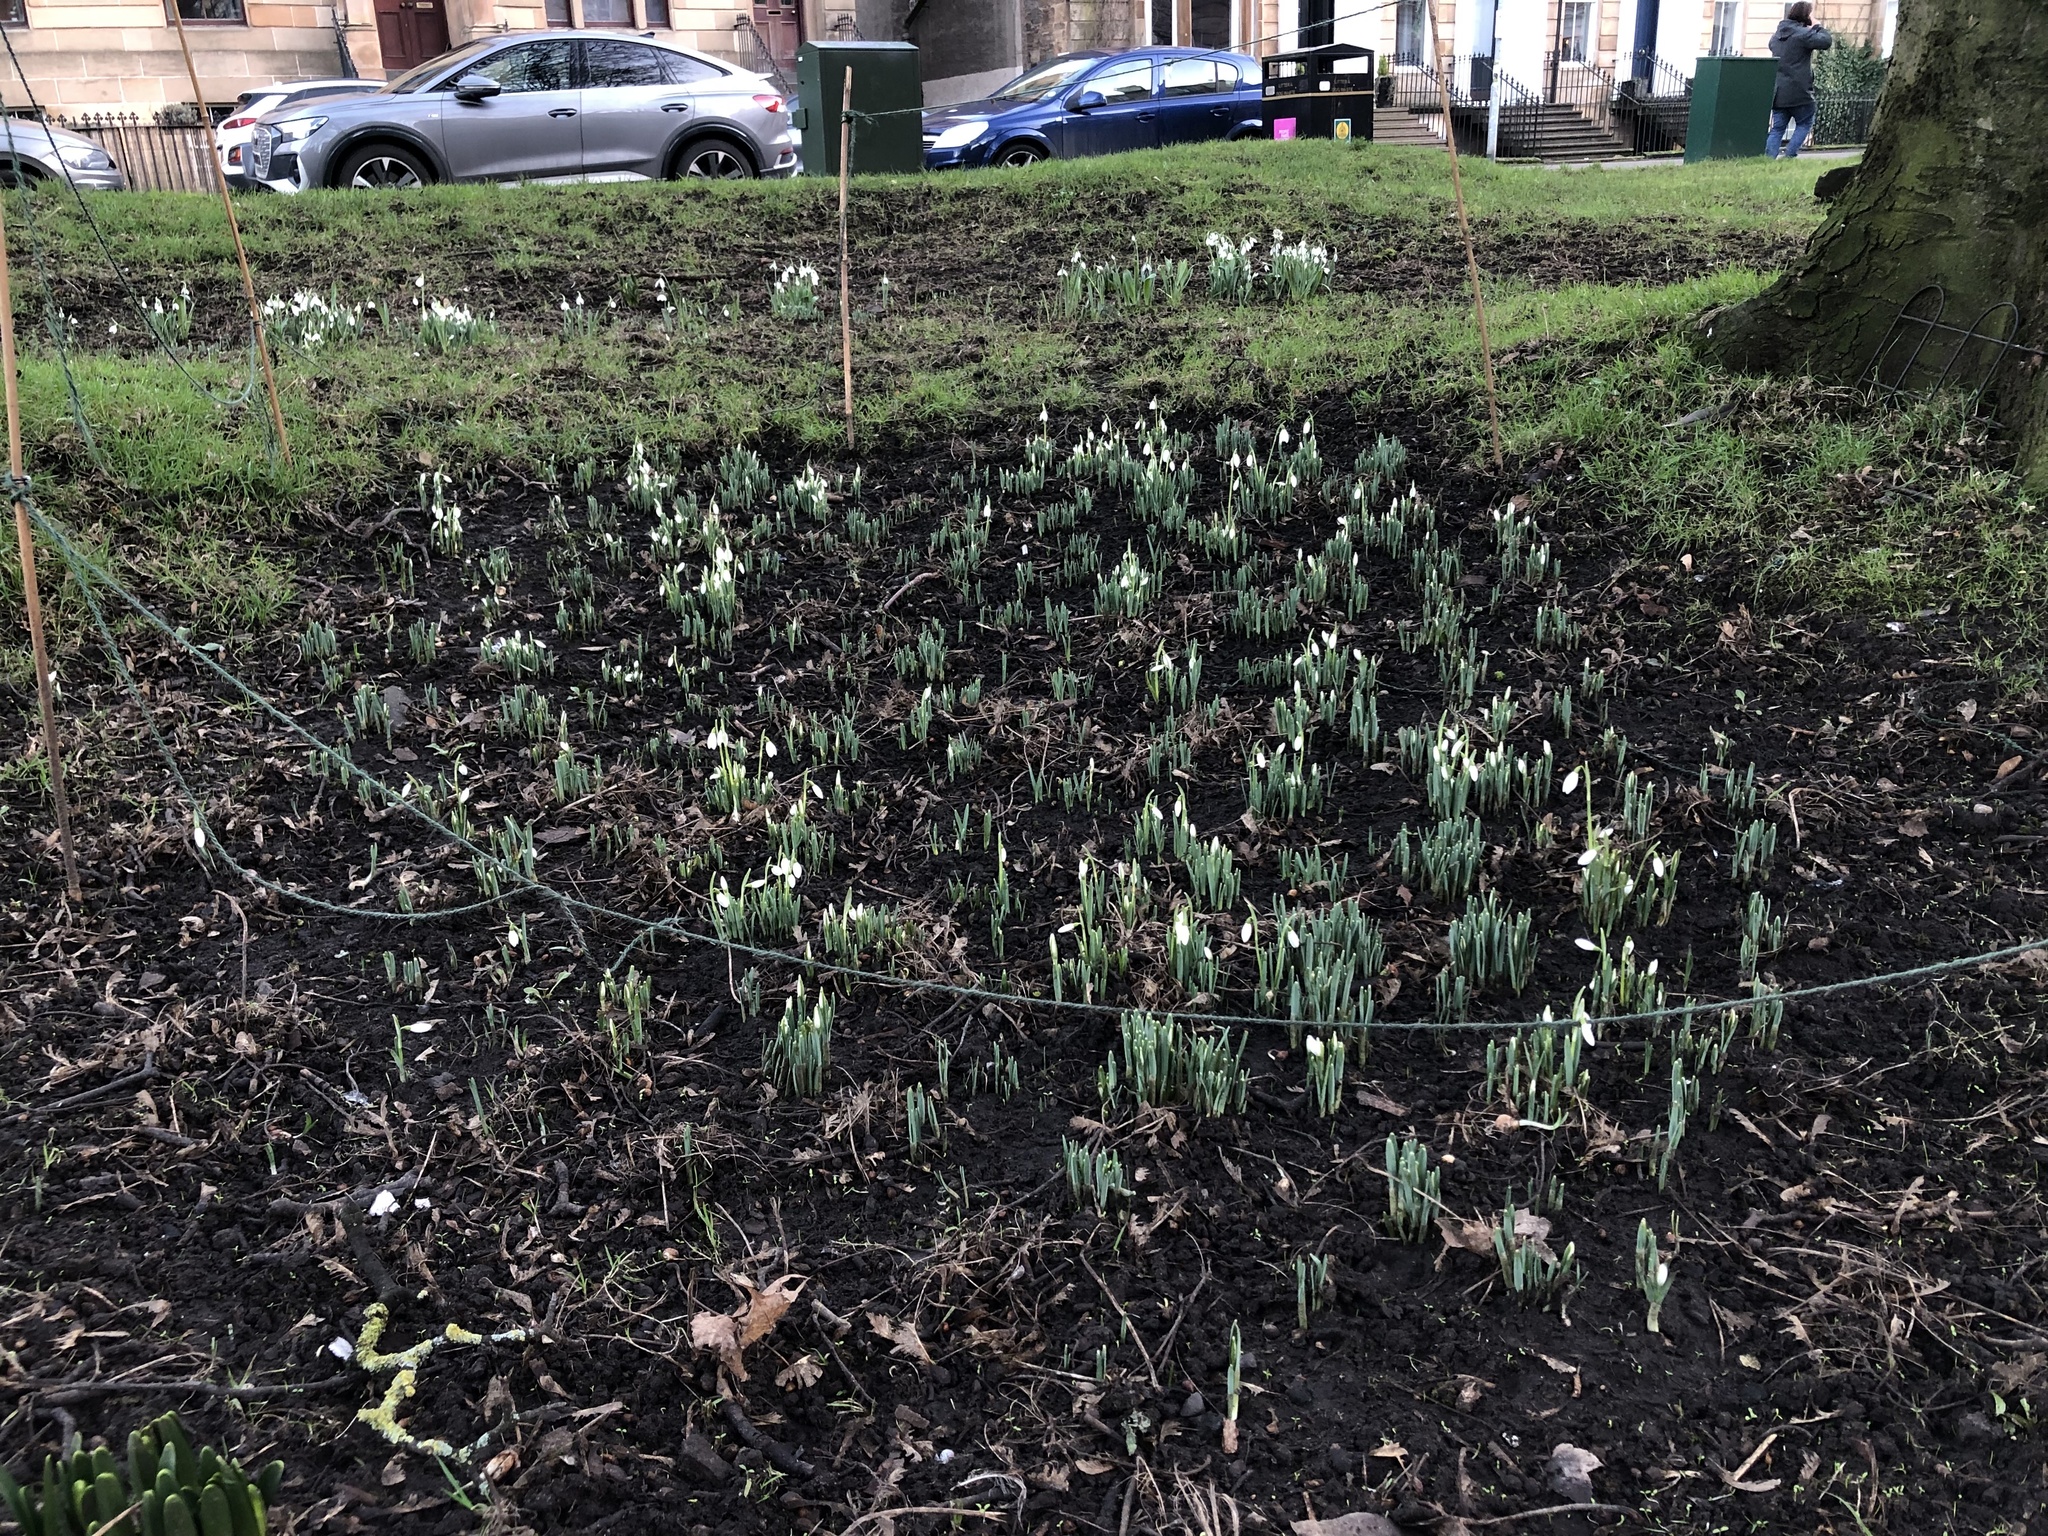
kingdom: Plantae
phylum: Tracheophyta
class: Liliopsida
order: Asparagales
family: Amaryllidaceae
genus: Galanthus
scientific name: Galanthus elwesii
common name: Greater snowdrop
